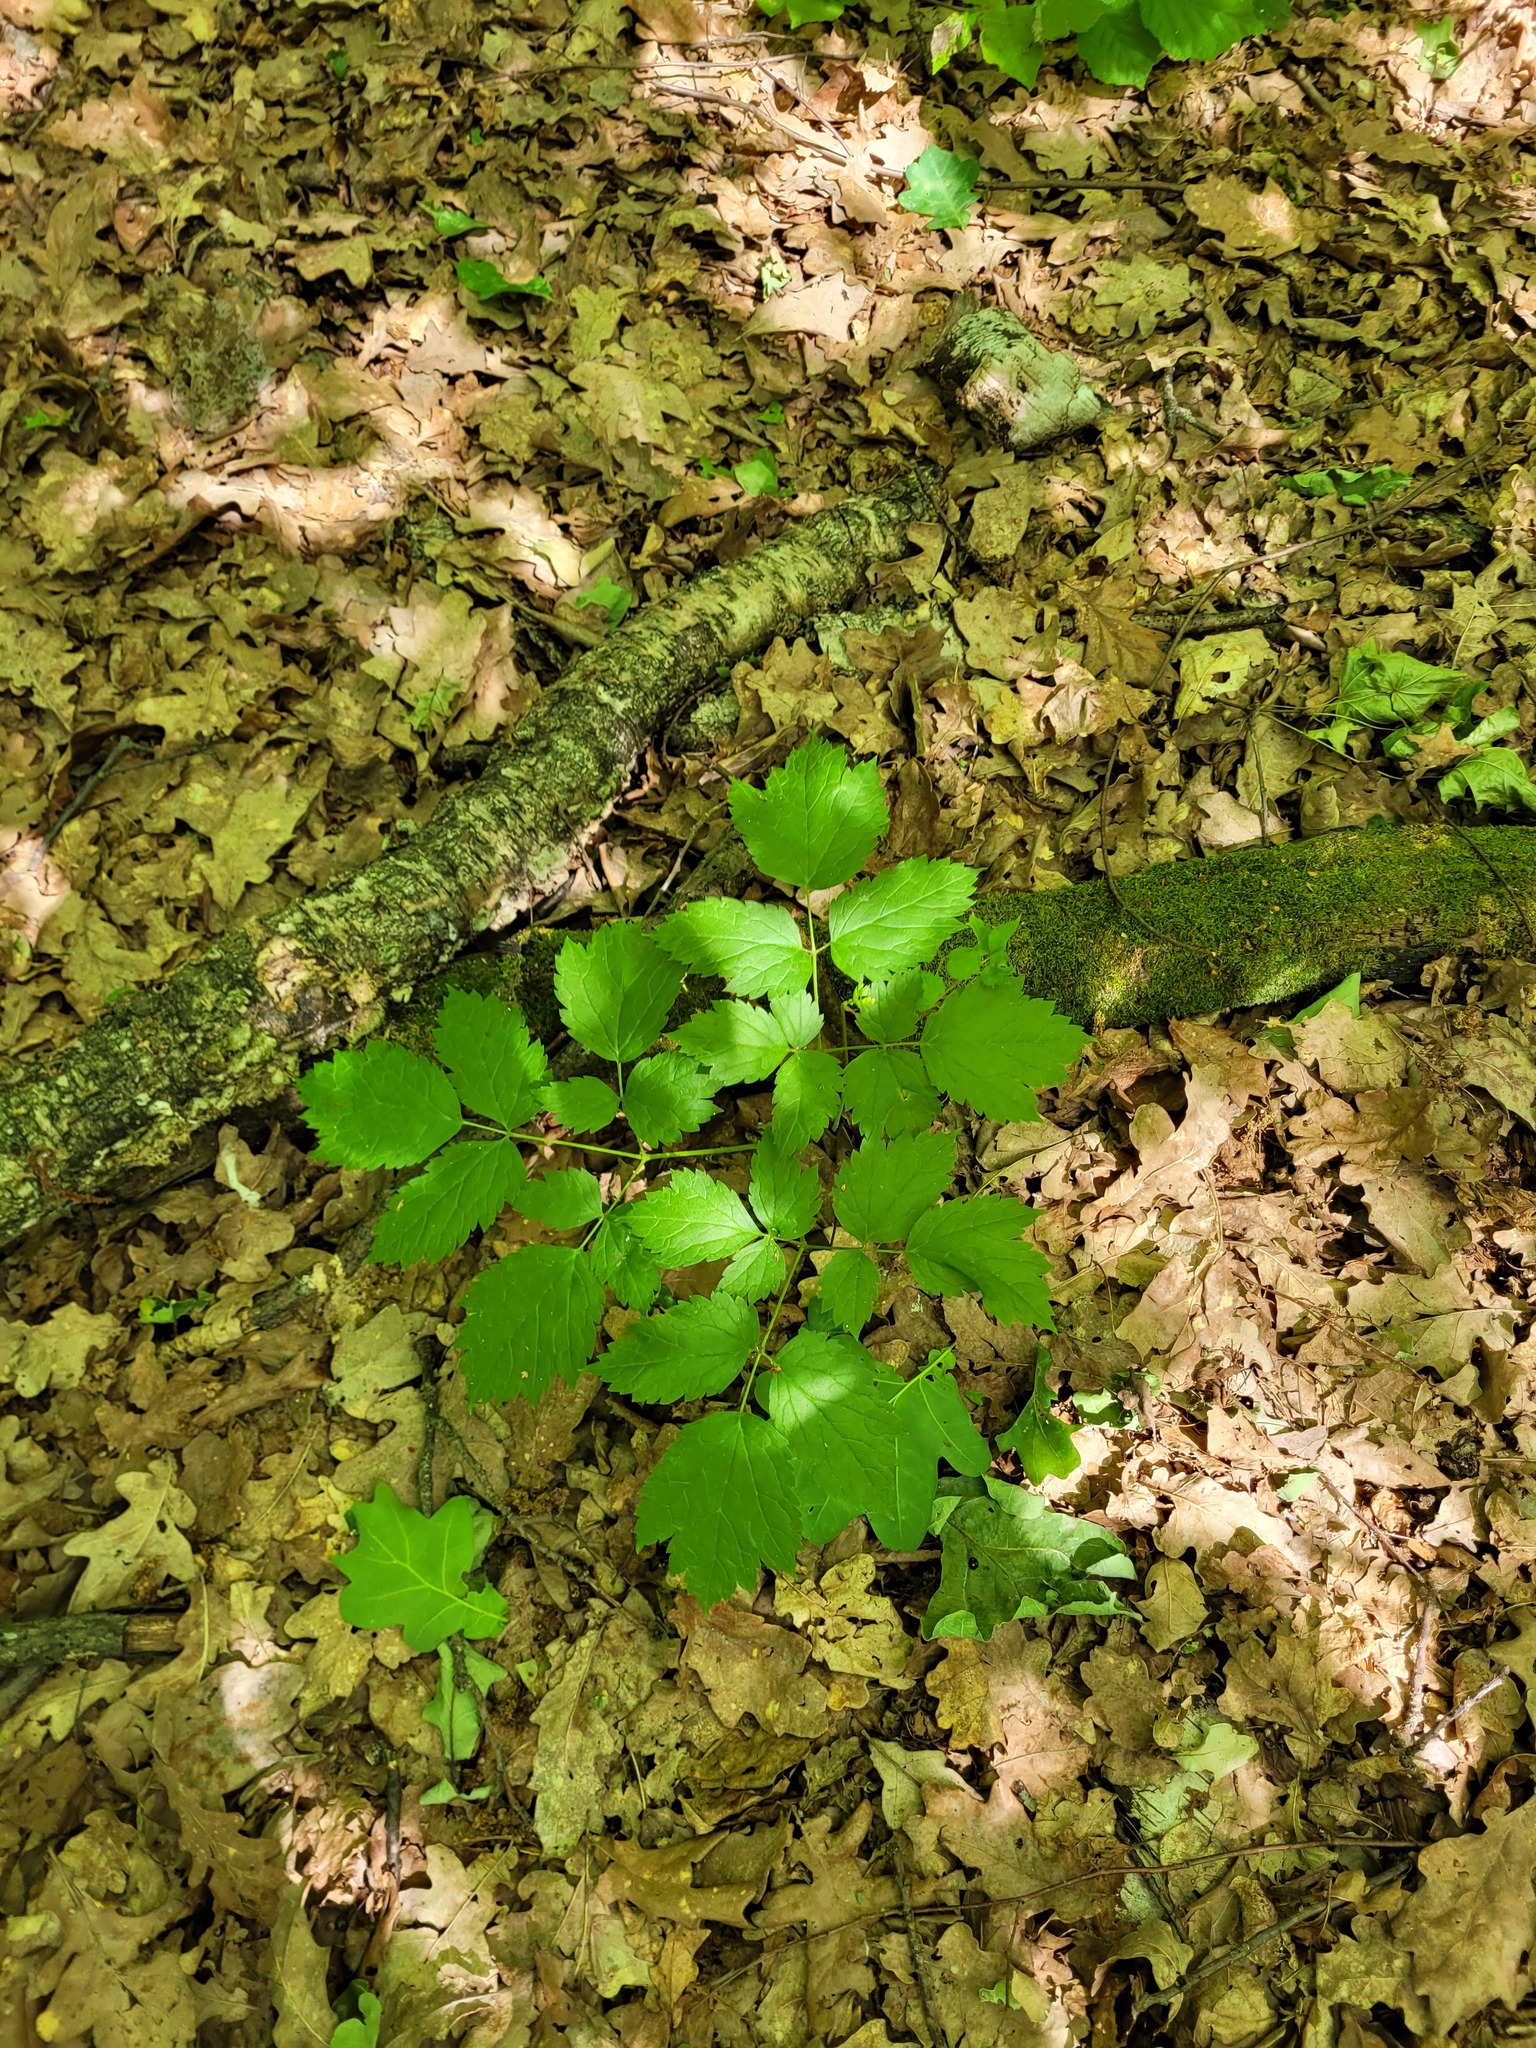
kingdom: Plantae
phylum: Tracheophyta
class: Magnoliopsida
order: Ranunculales
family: Ranunculaceae
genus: Actaea
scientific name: Actaea spicata
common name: Baneberry
